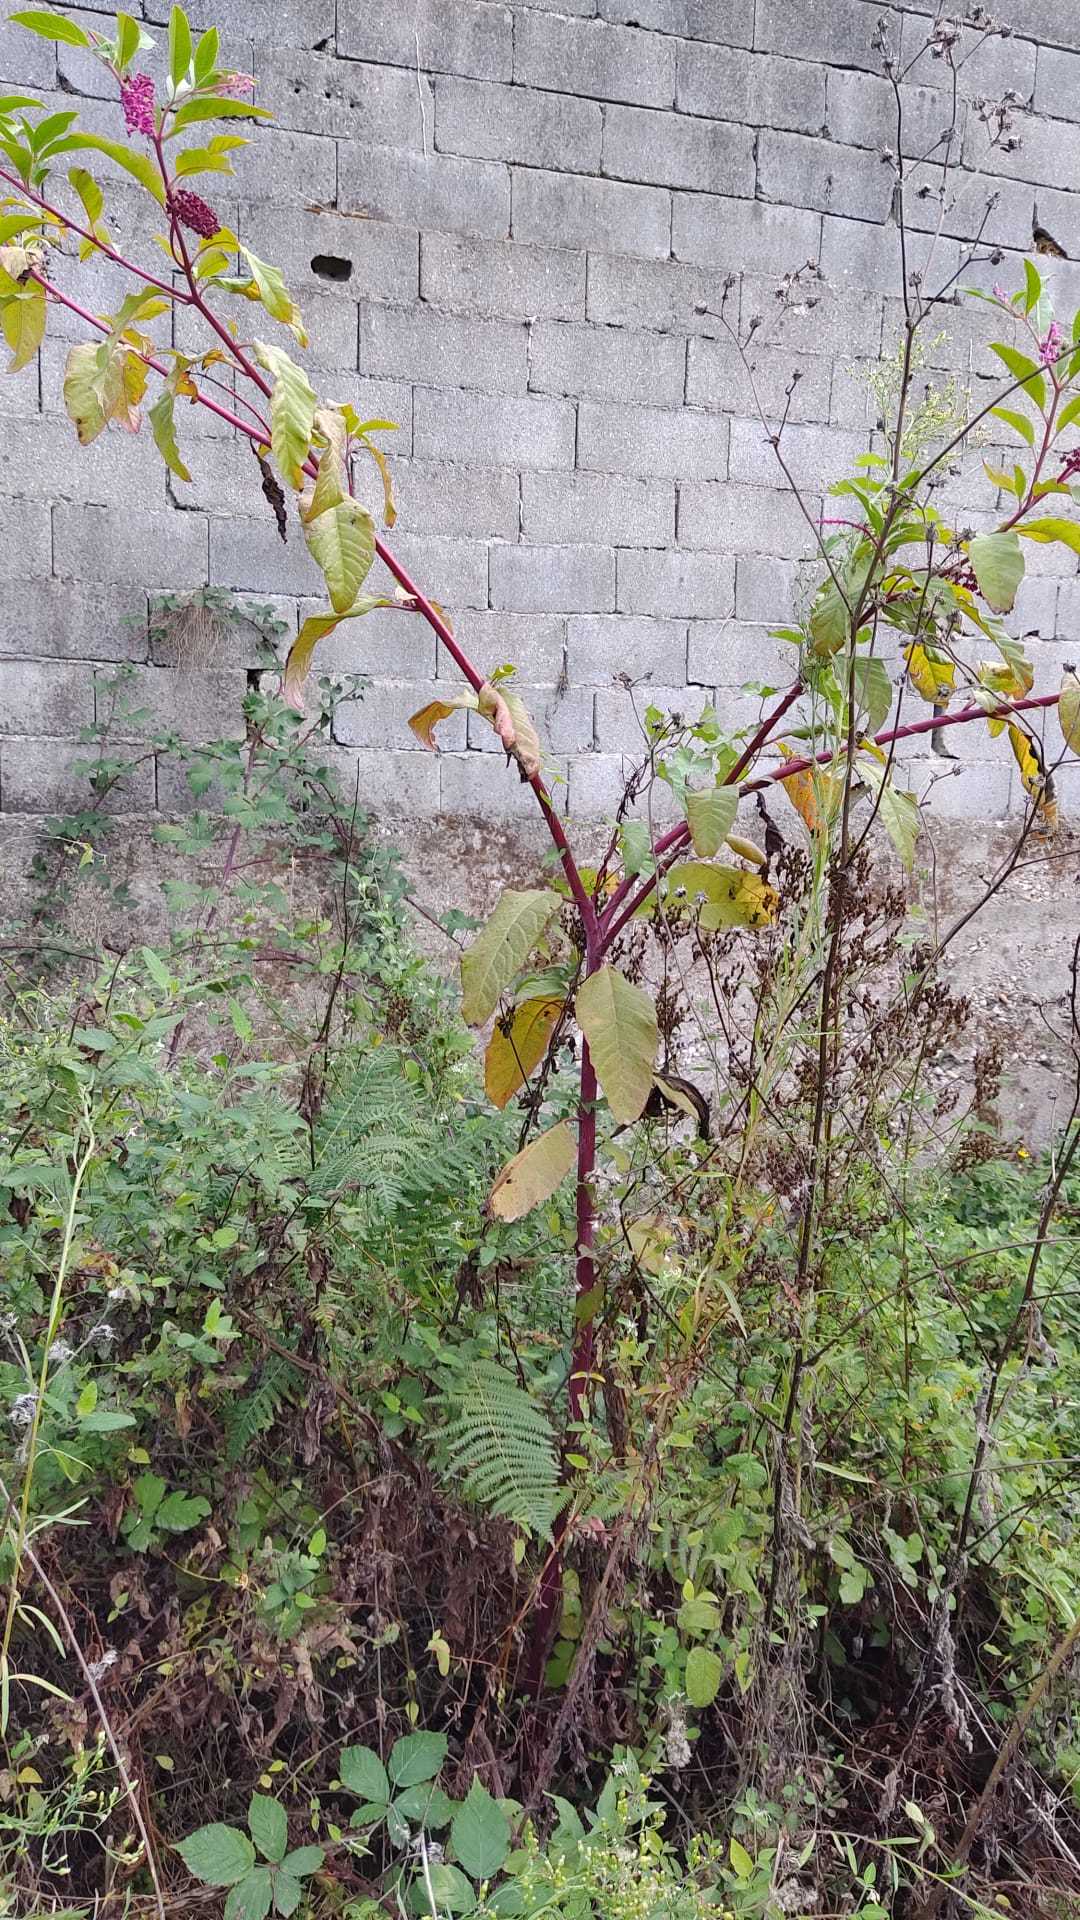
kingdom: Plantae
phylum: Tracheophyta
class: Magnoliopsida
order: Caryophyllales
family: Phytolaccaceae
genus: Phytolacca
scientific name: Phytolacca americana
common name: American pokeweed
